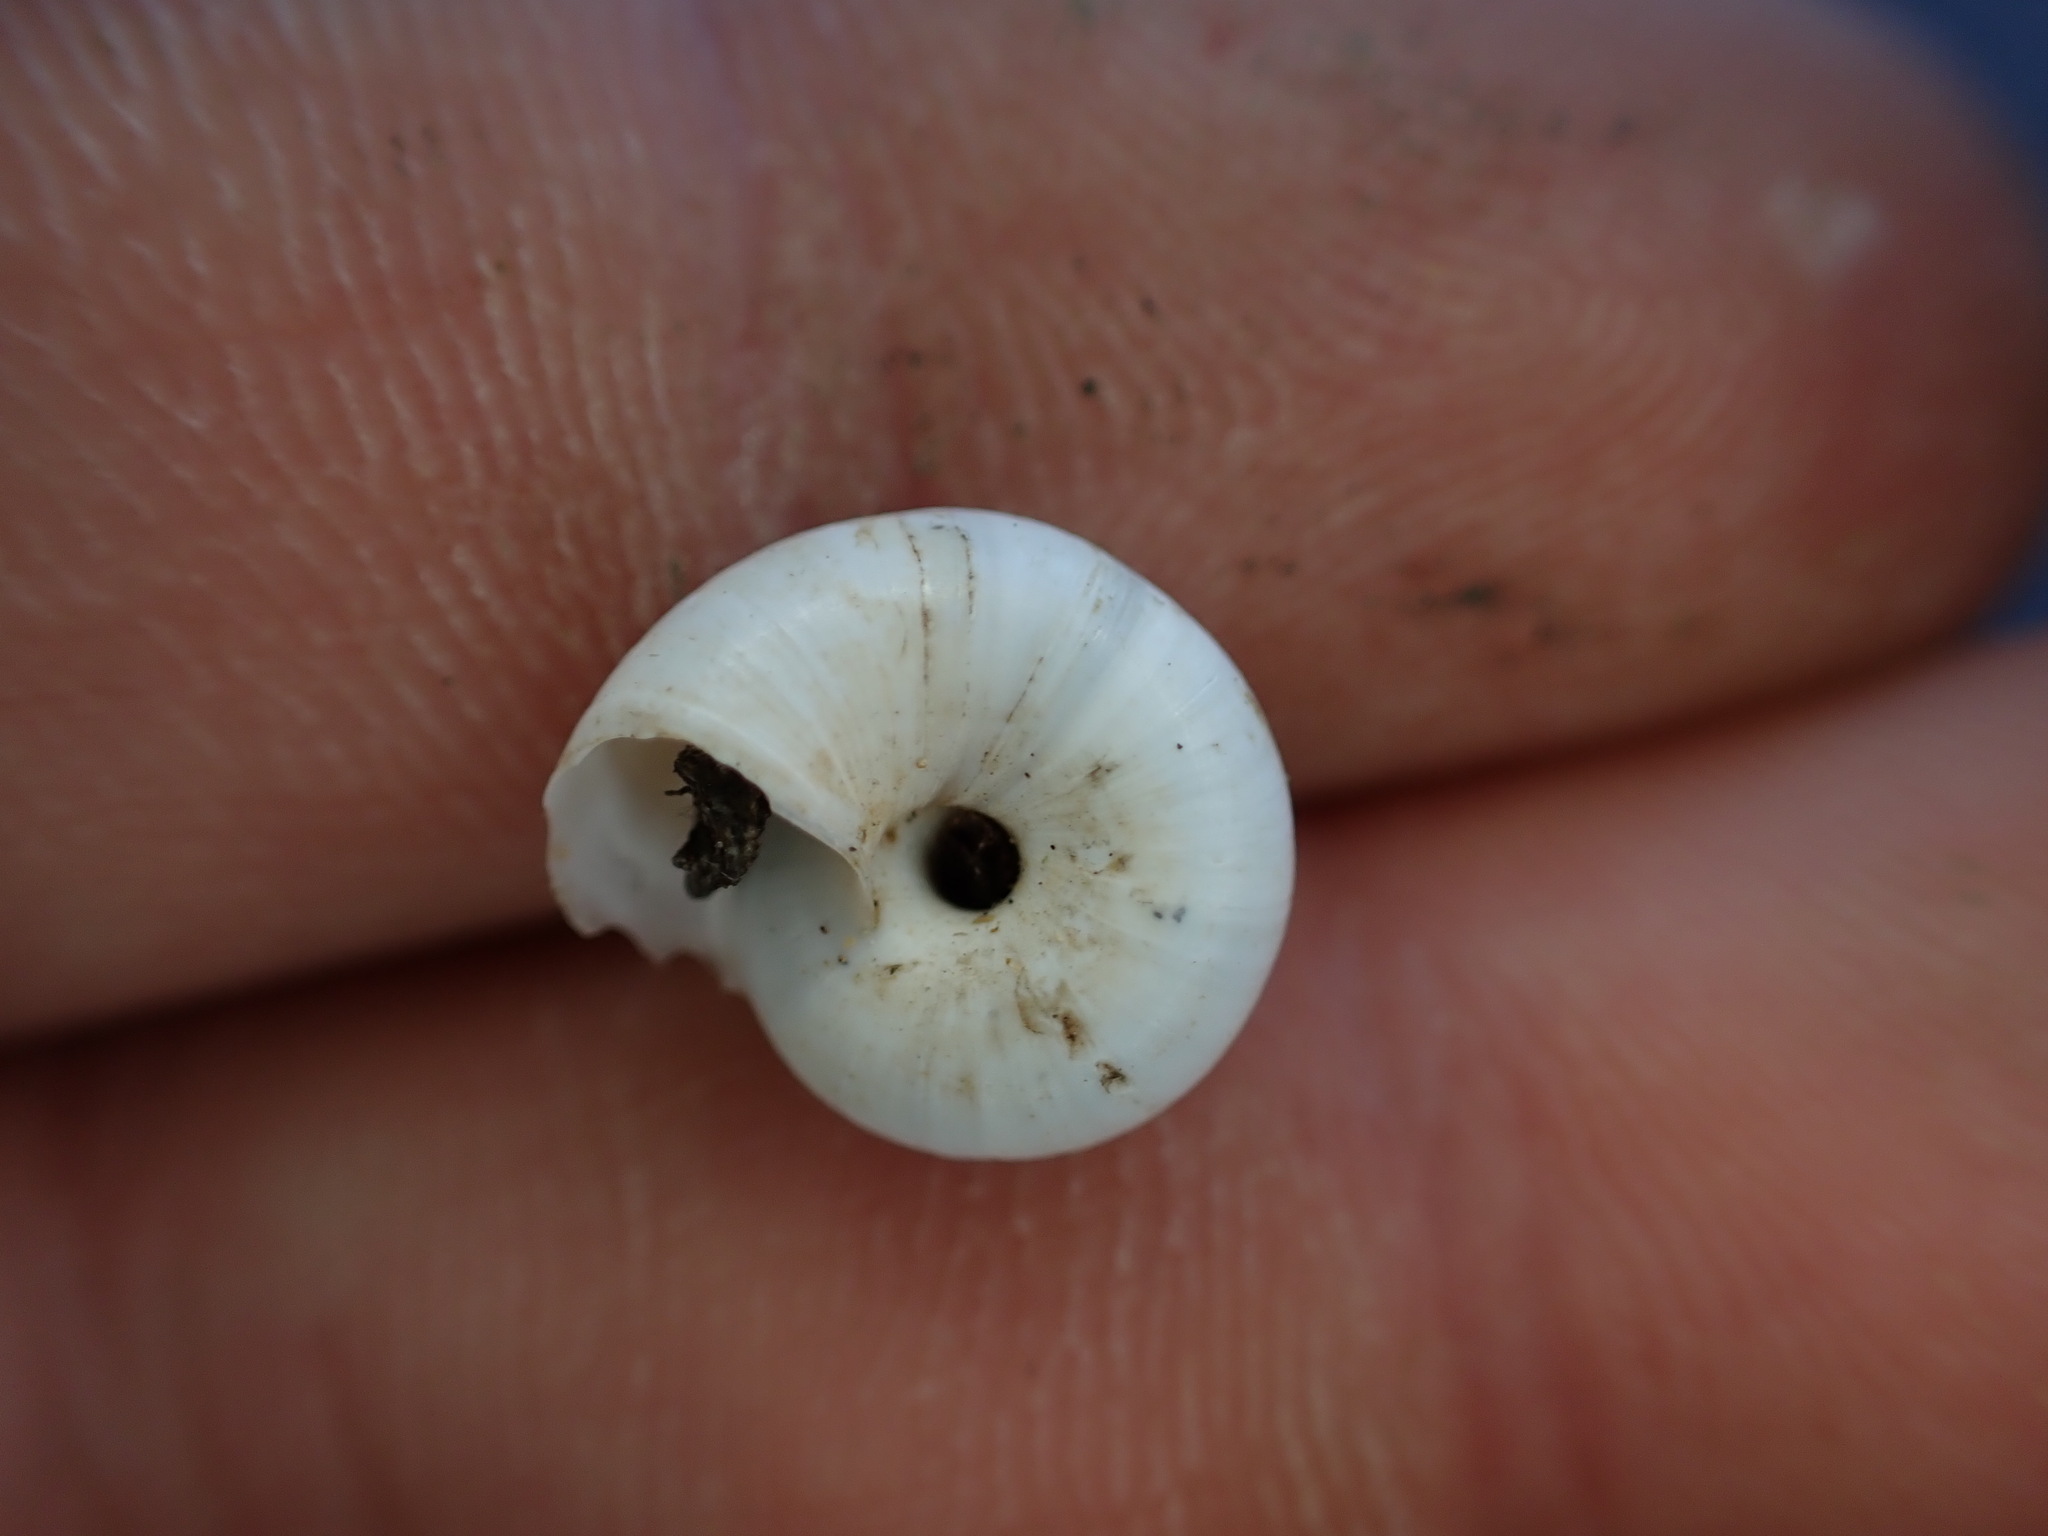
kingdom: Animalia
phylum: Mollusca
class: Gastropoda
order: Stylommatophora
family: Geomitridae
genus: Xeropicta
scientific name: Xeropicta derbentina
